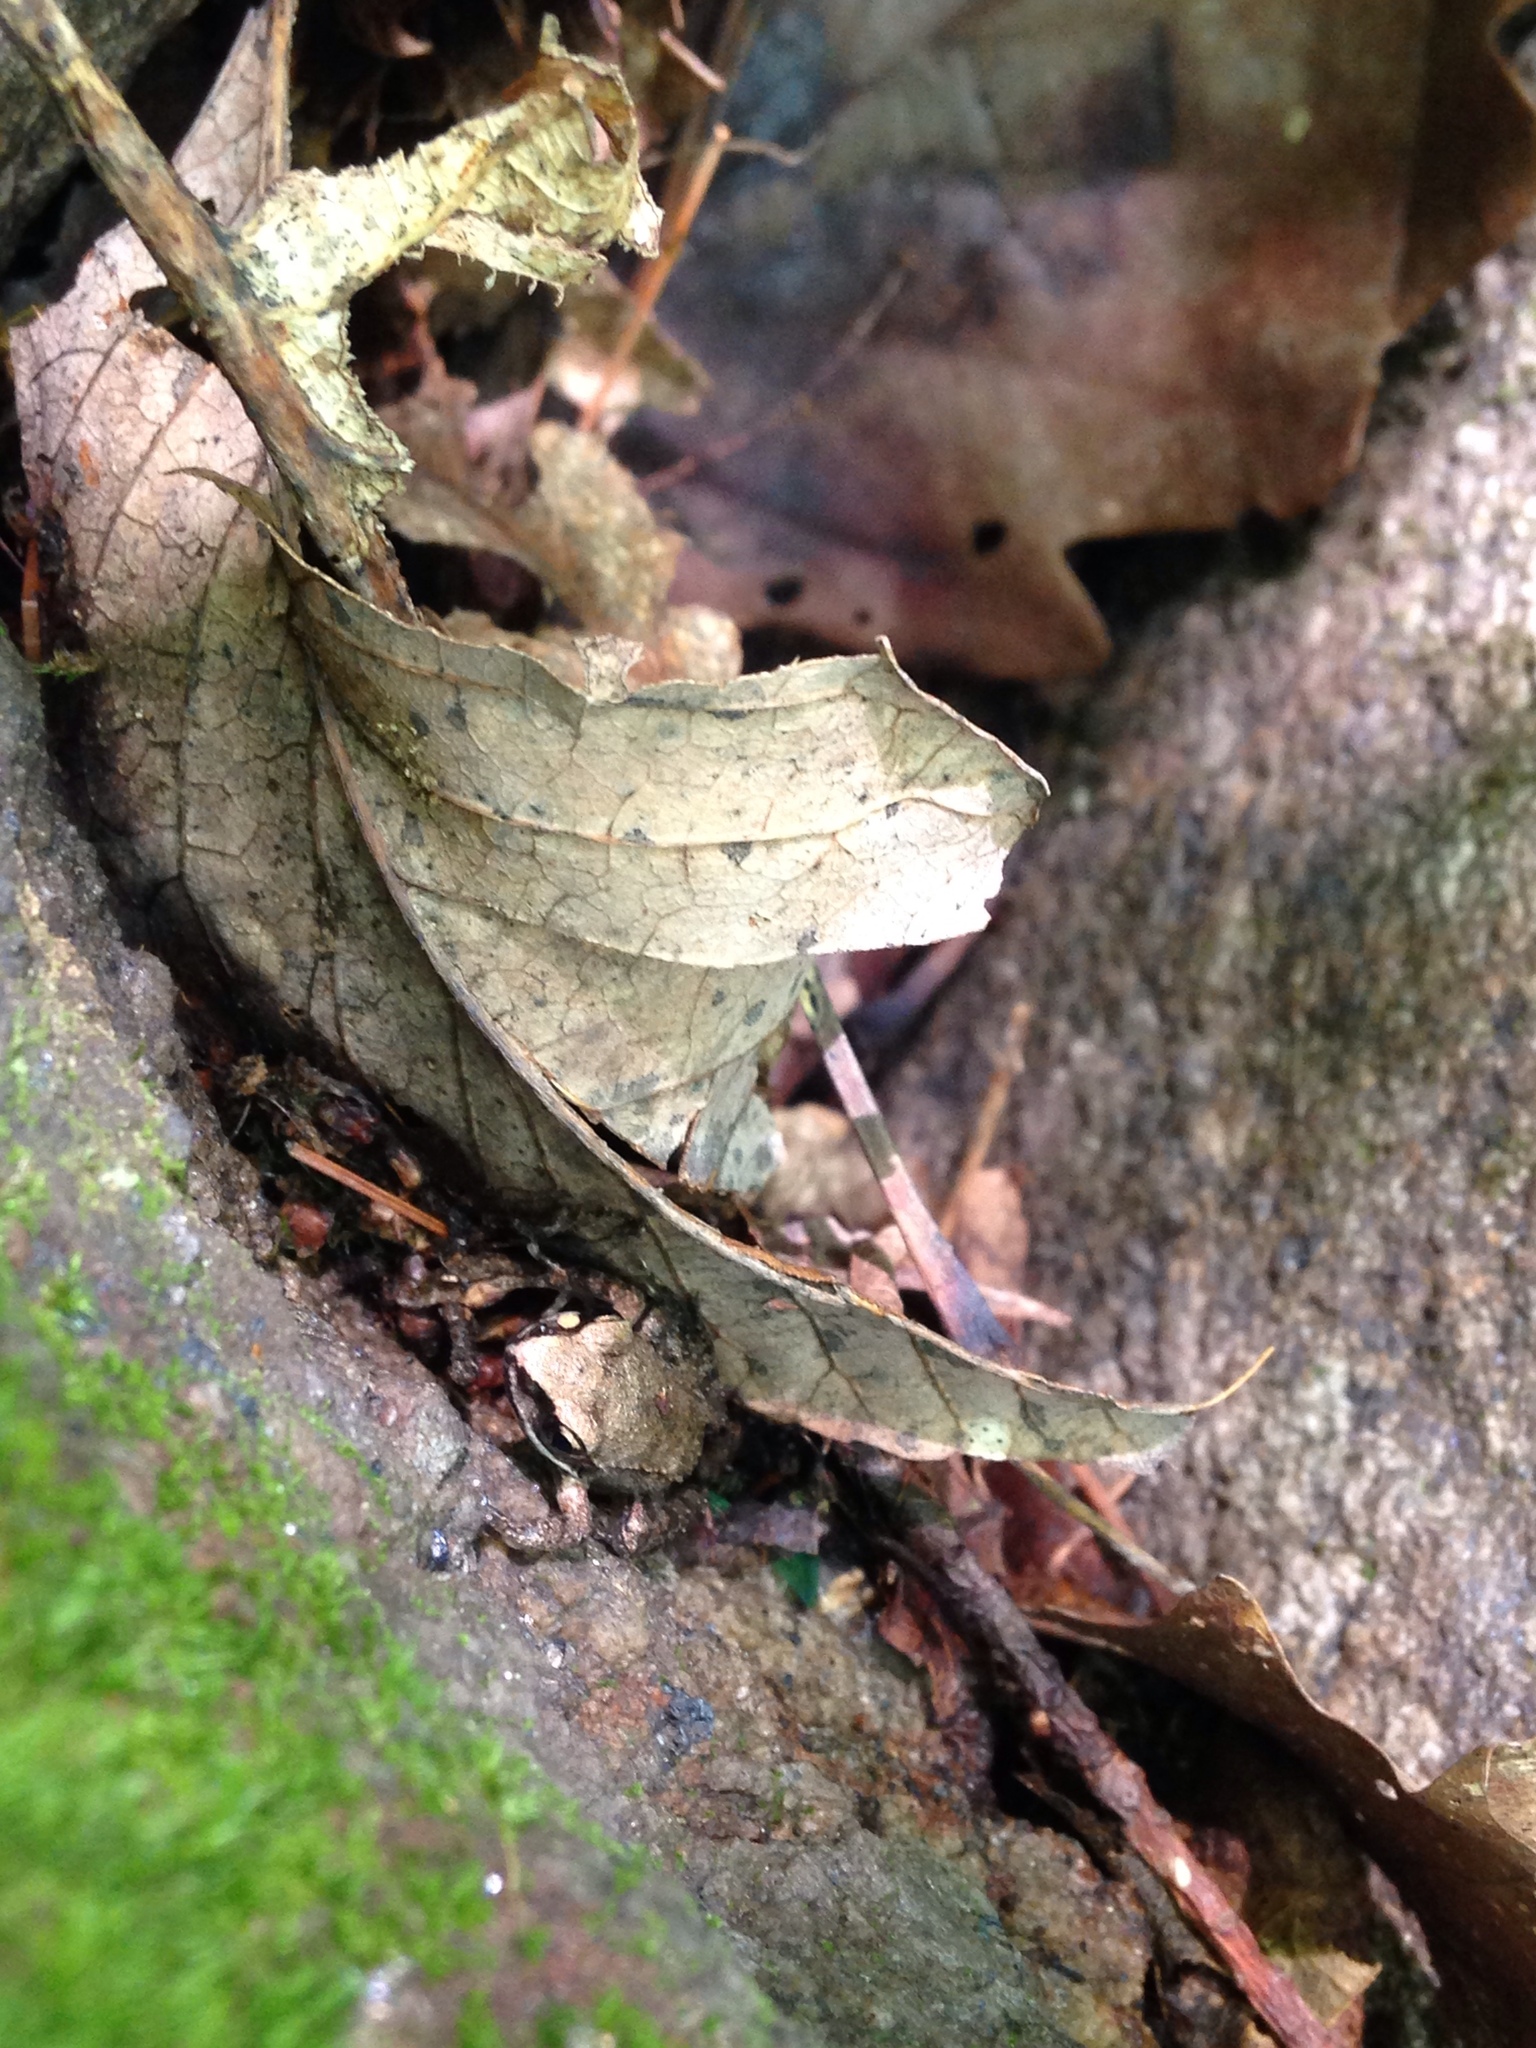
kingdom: Animalia
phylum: Chordata
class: Amphibia
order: Anura
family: Ranidae
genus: Lithobates
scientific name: Lithobates sylvaticus
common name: Wood frog
